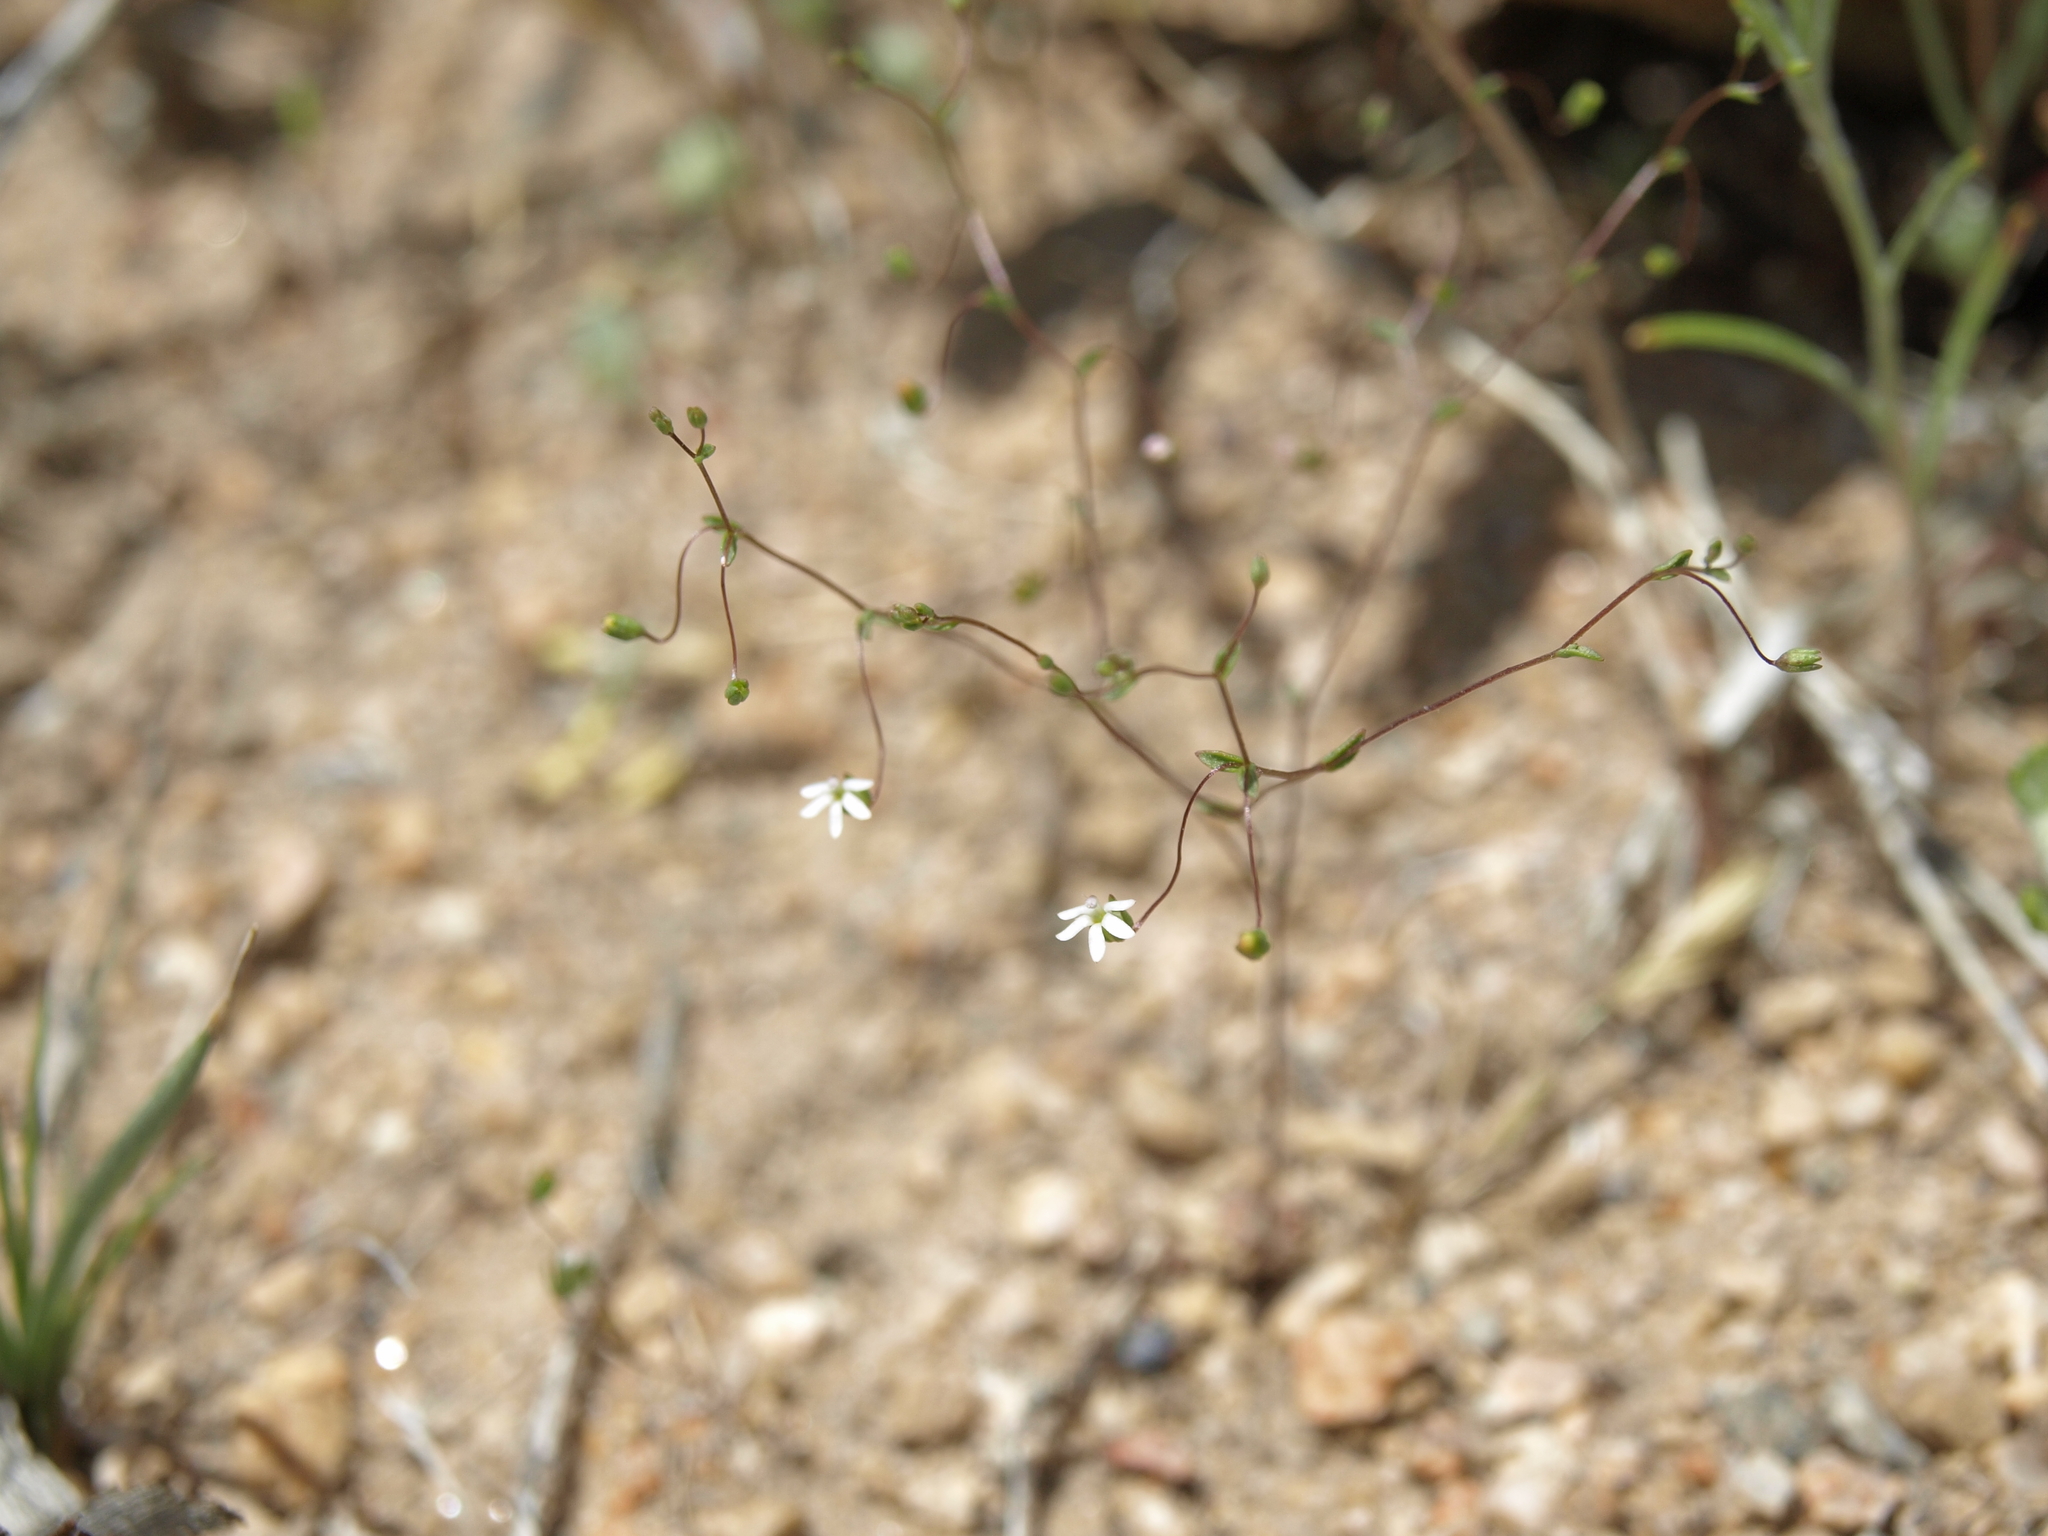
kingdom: Plantae
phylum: Tracheophyta
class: Magnoliopsida
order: Asterales
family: Campanulaceae
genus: Nemacladus
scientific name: Nemacladus sigmoideus
